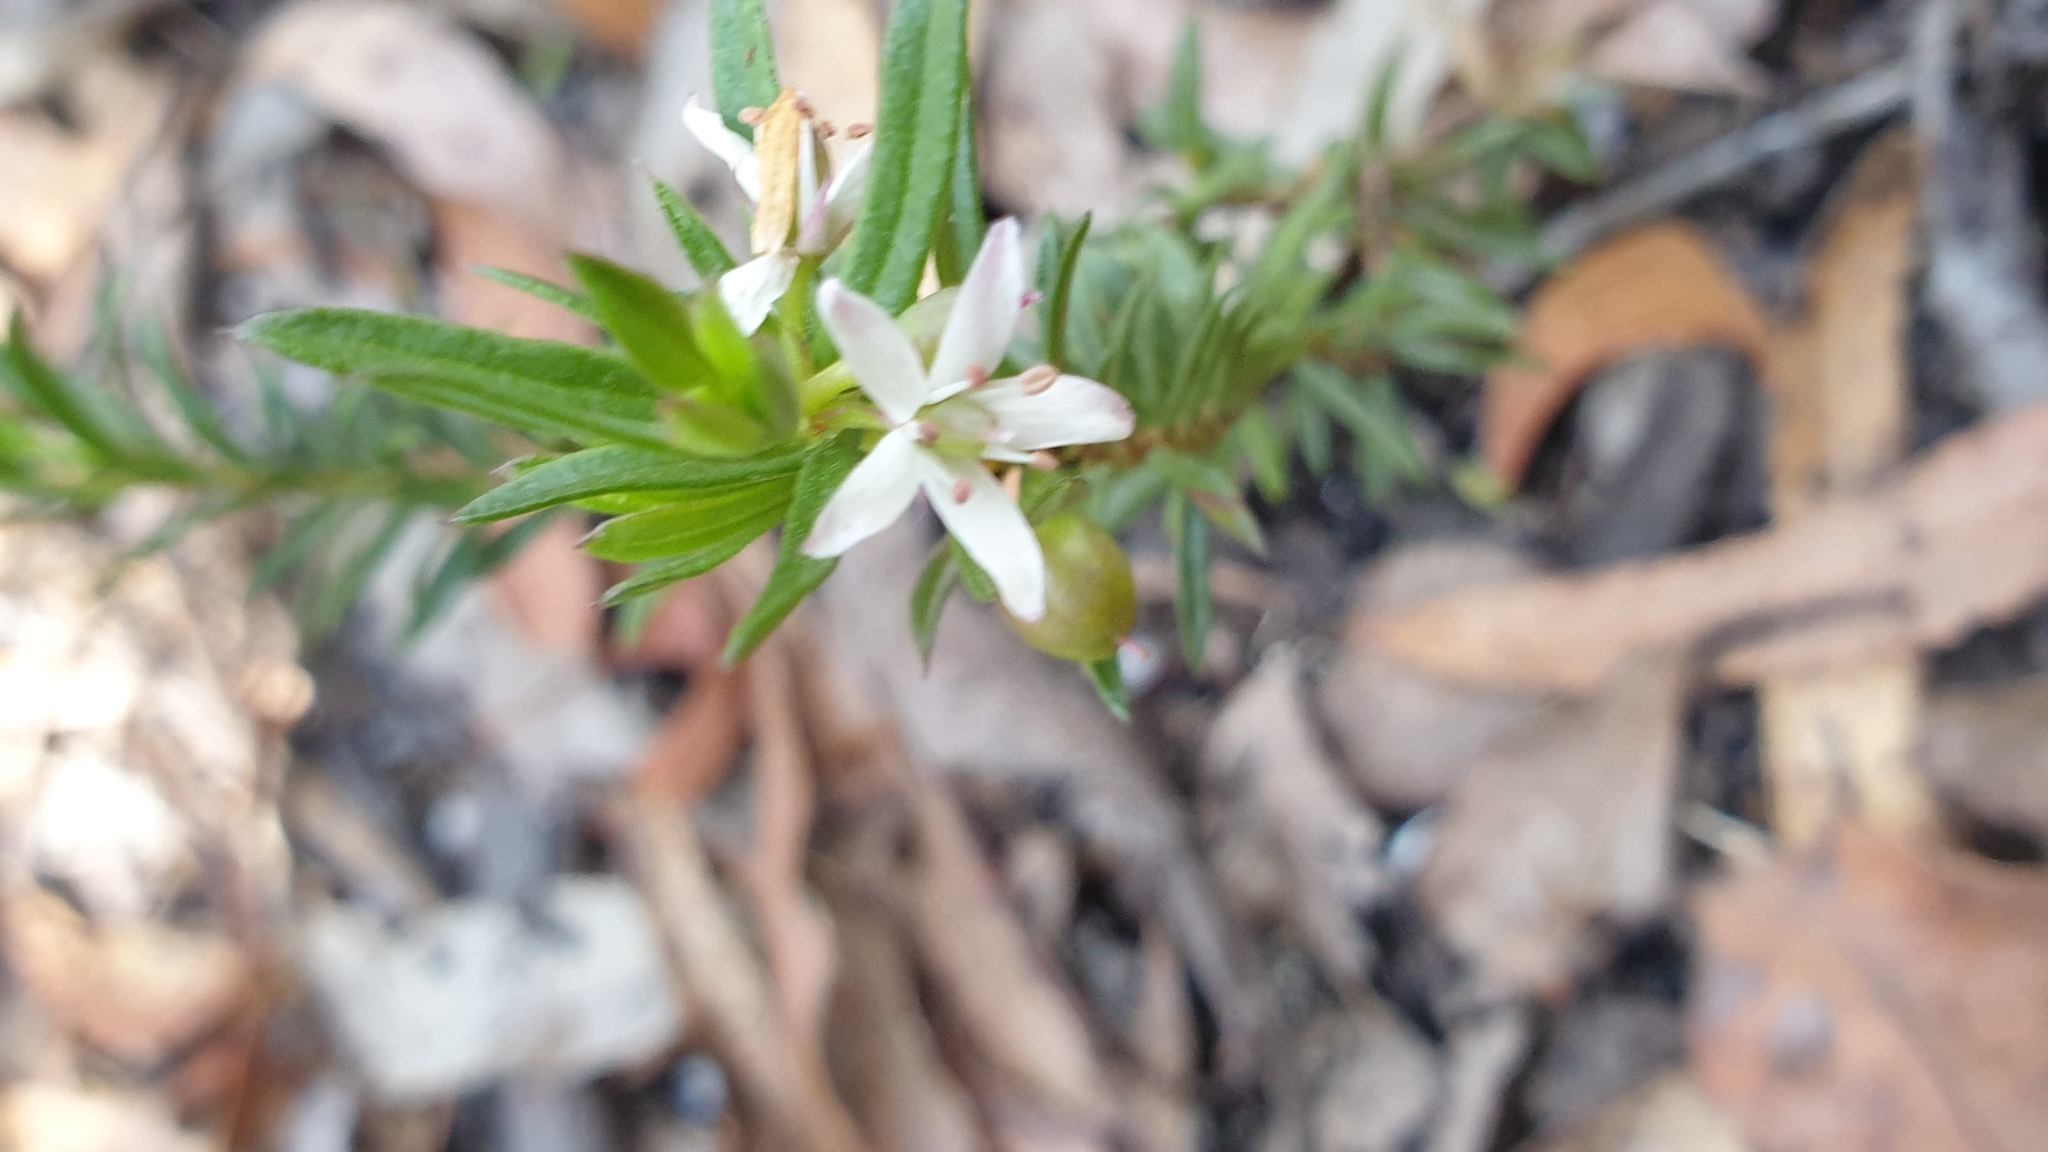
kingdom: Plantae
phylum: Tracheophyta
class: Magnoliopsida
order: Apiales
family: Pittosporaceae
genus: Rhytidosporum
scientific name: Rhytidosporum procumbens
